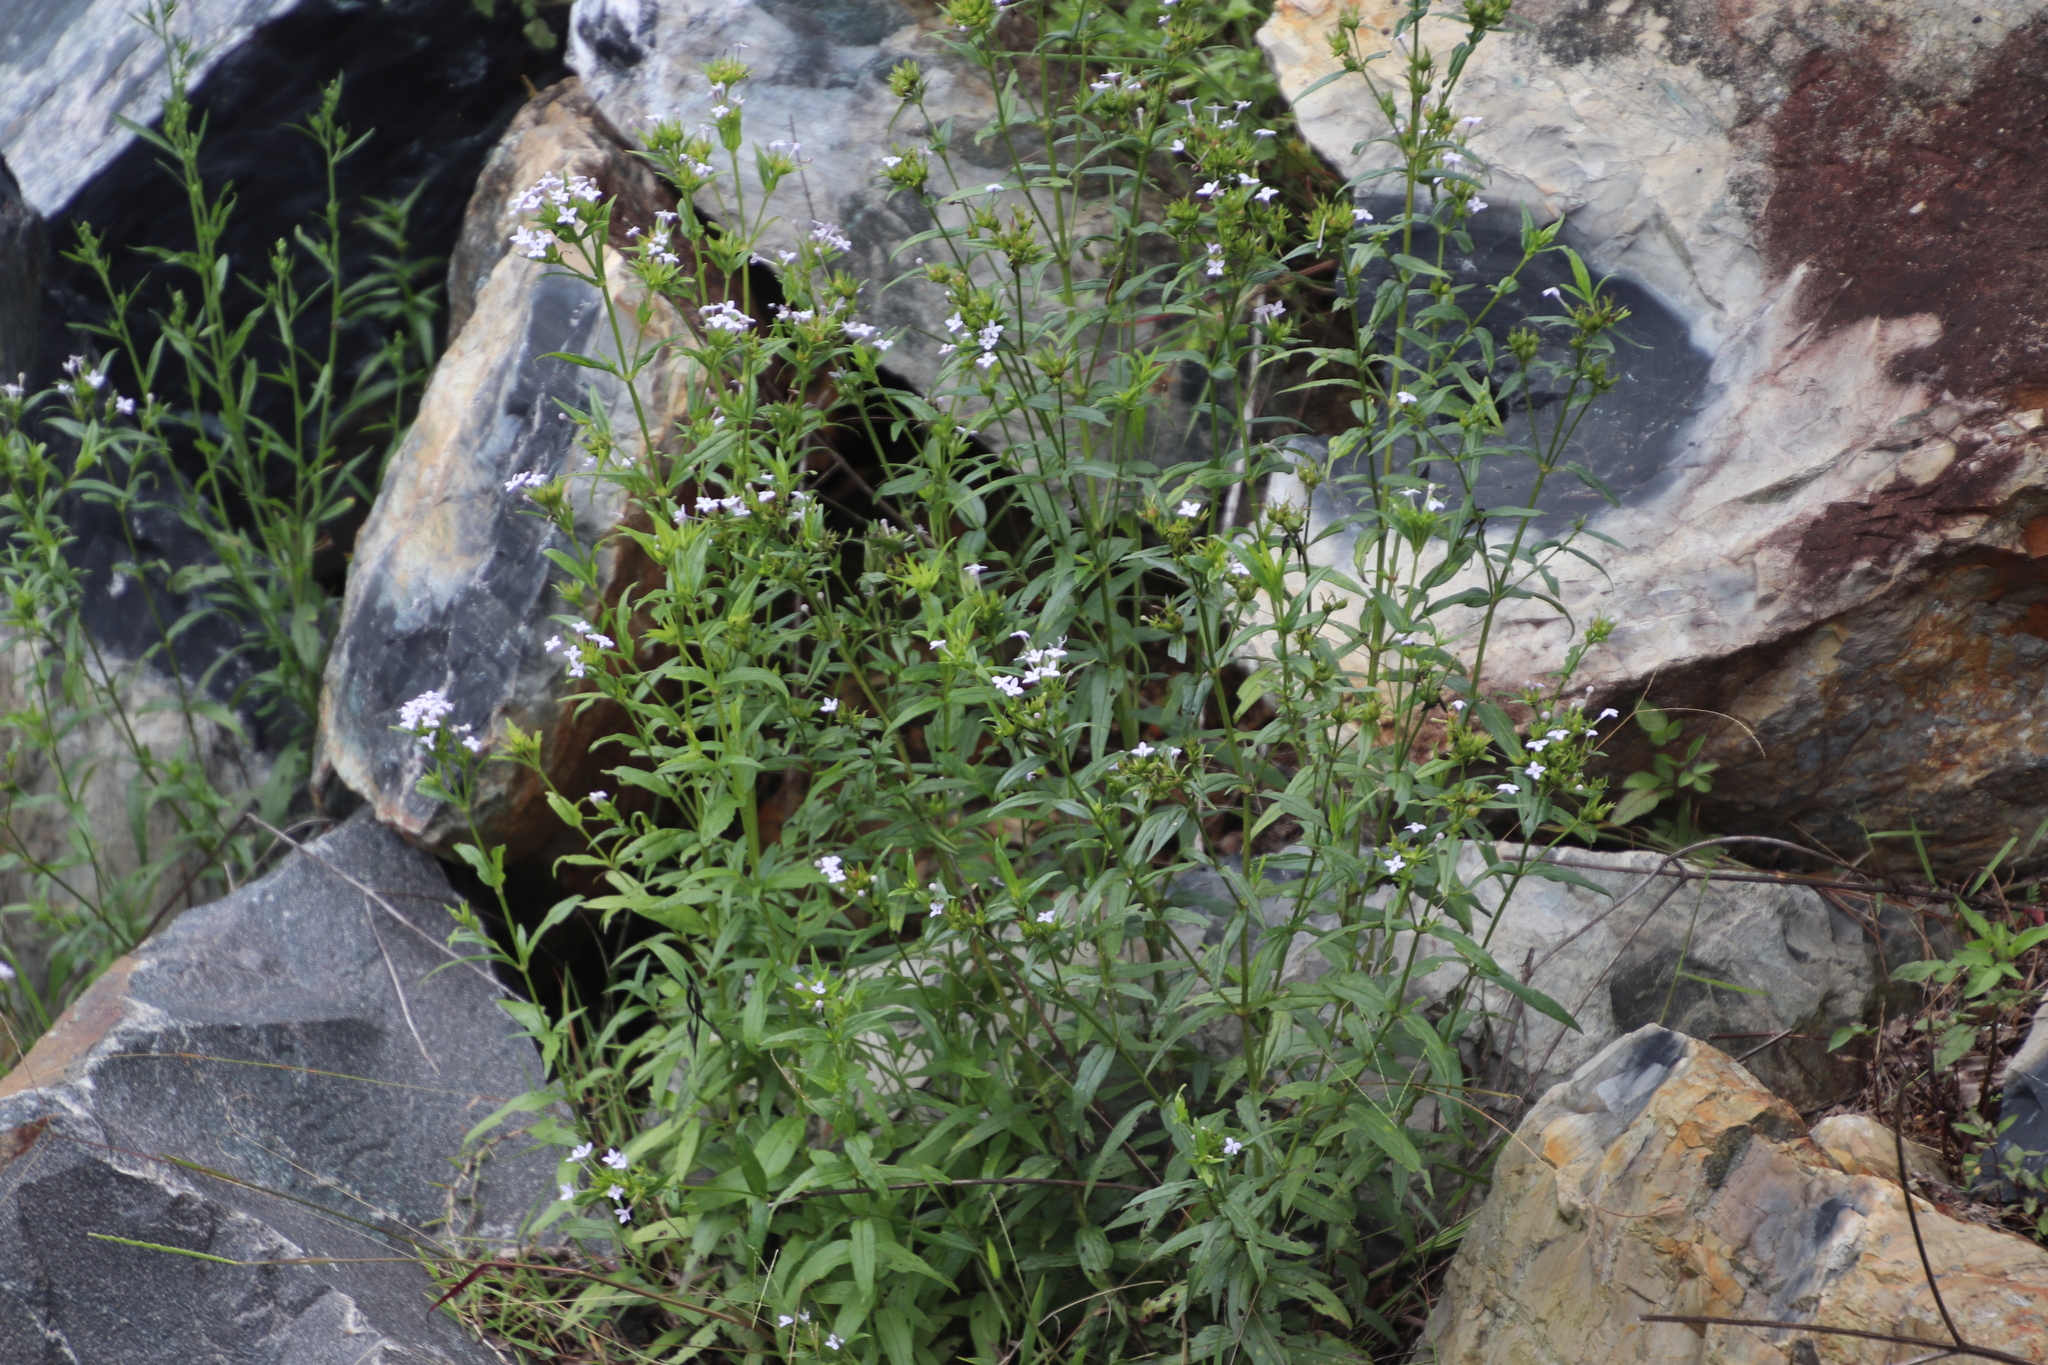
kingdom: Plantae
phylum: Tracheophyta
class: Magnoliopsida
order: Gentianales
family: Rubiaceae
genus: Conostomium
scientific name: Conostomium natalense
